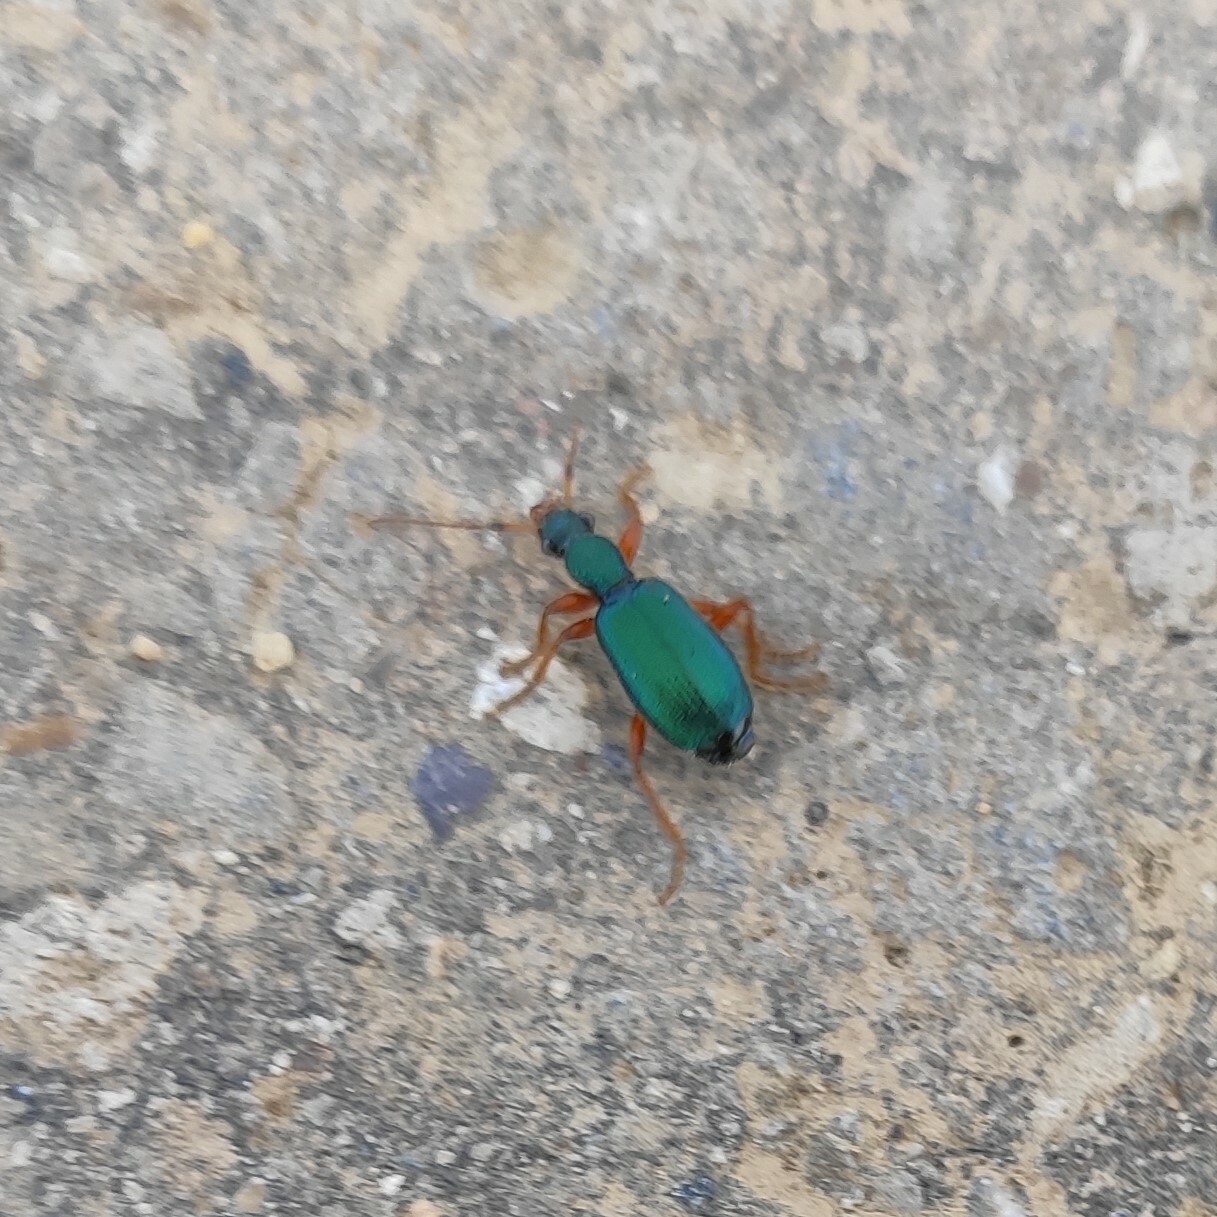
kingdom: Animalia
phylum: Arthropoda
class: Insecta
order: Coleoptera
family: Carabidae
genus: Drypta
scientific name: Drypta dentata
